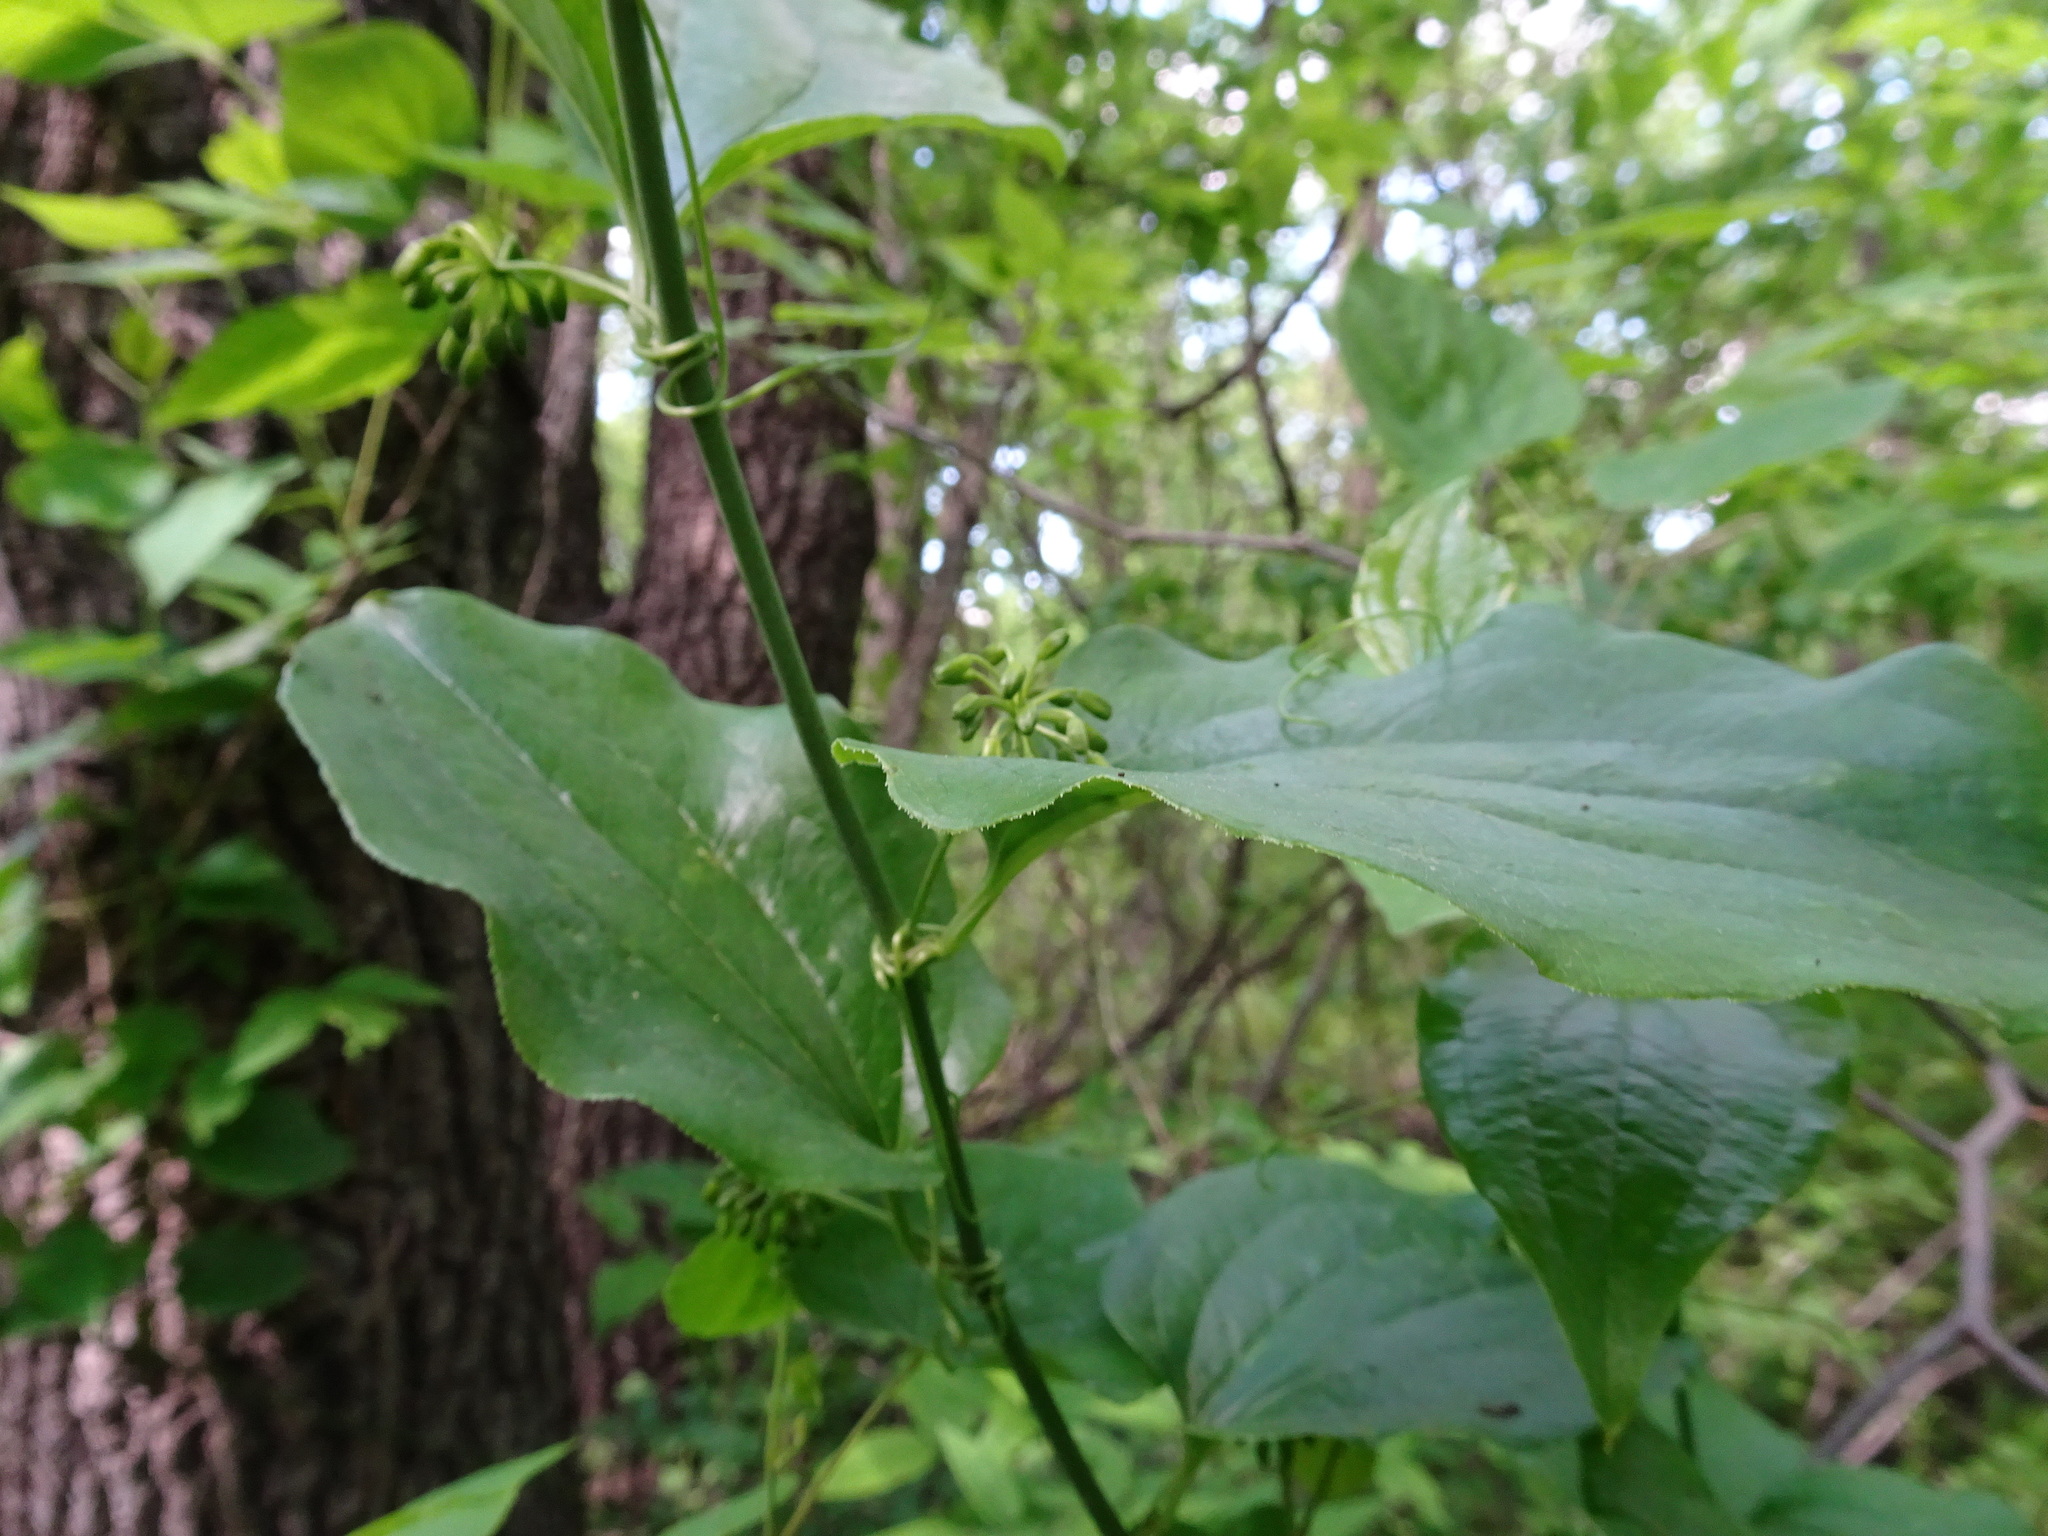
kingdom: Plantae
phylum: Tracheophyta
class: Liliopsida
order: Liliales
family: Smilacaceae
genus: Smilax
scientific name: Smilax tamnoides
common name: Hellfetter
